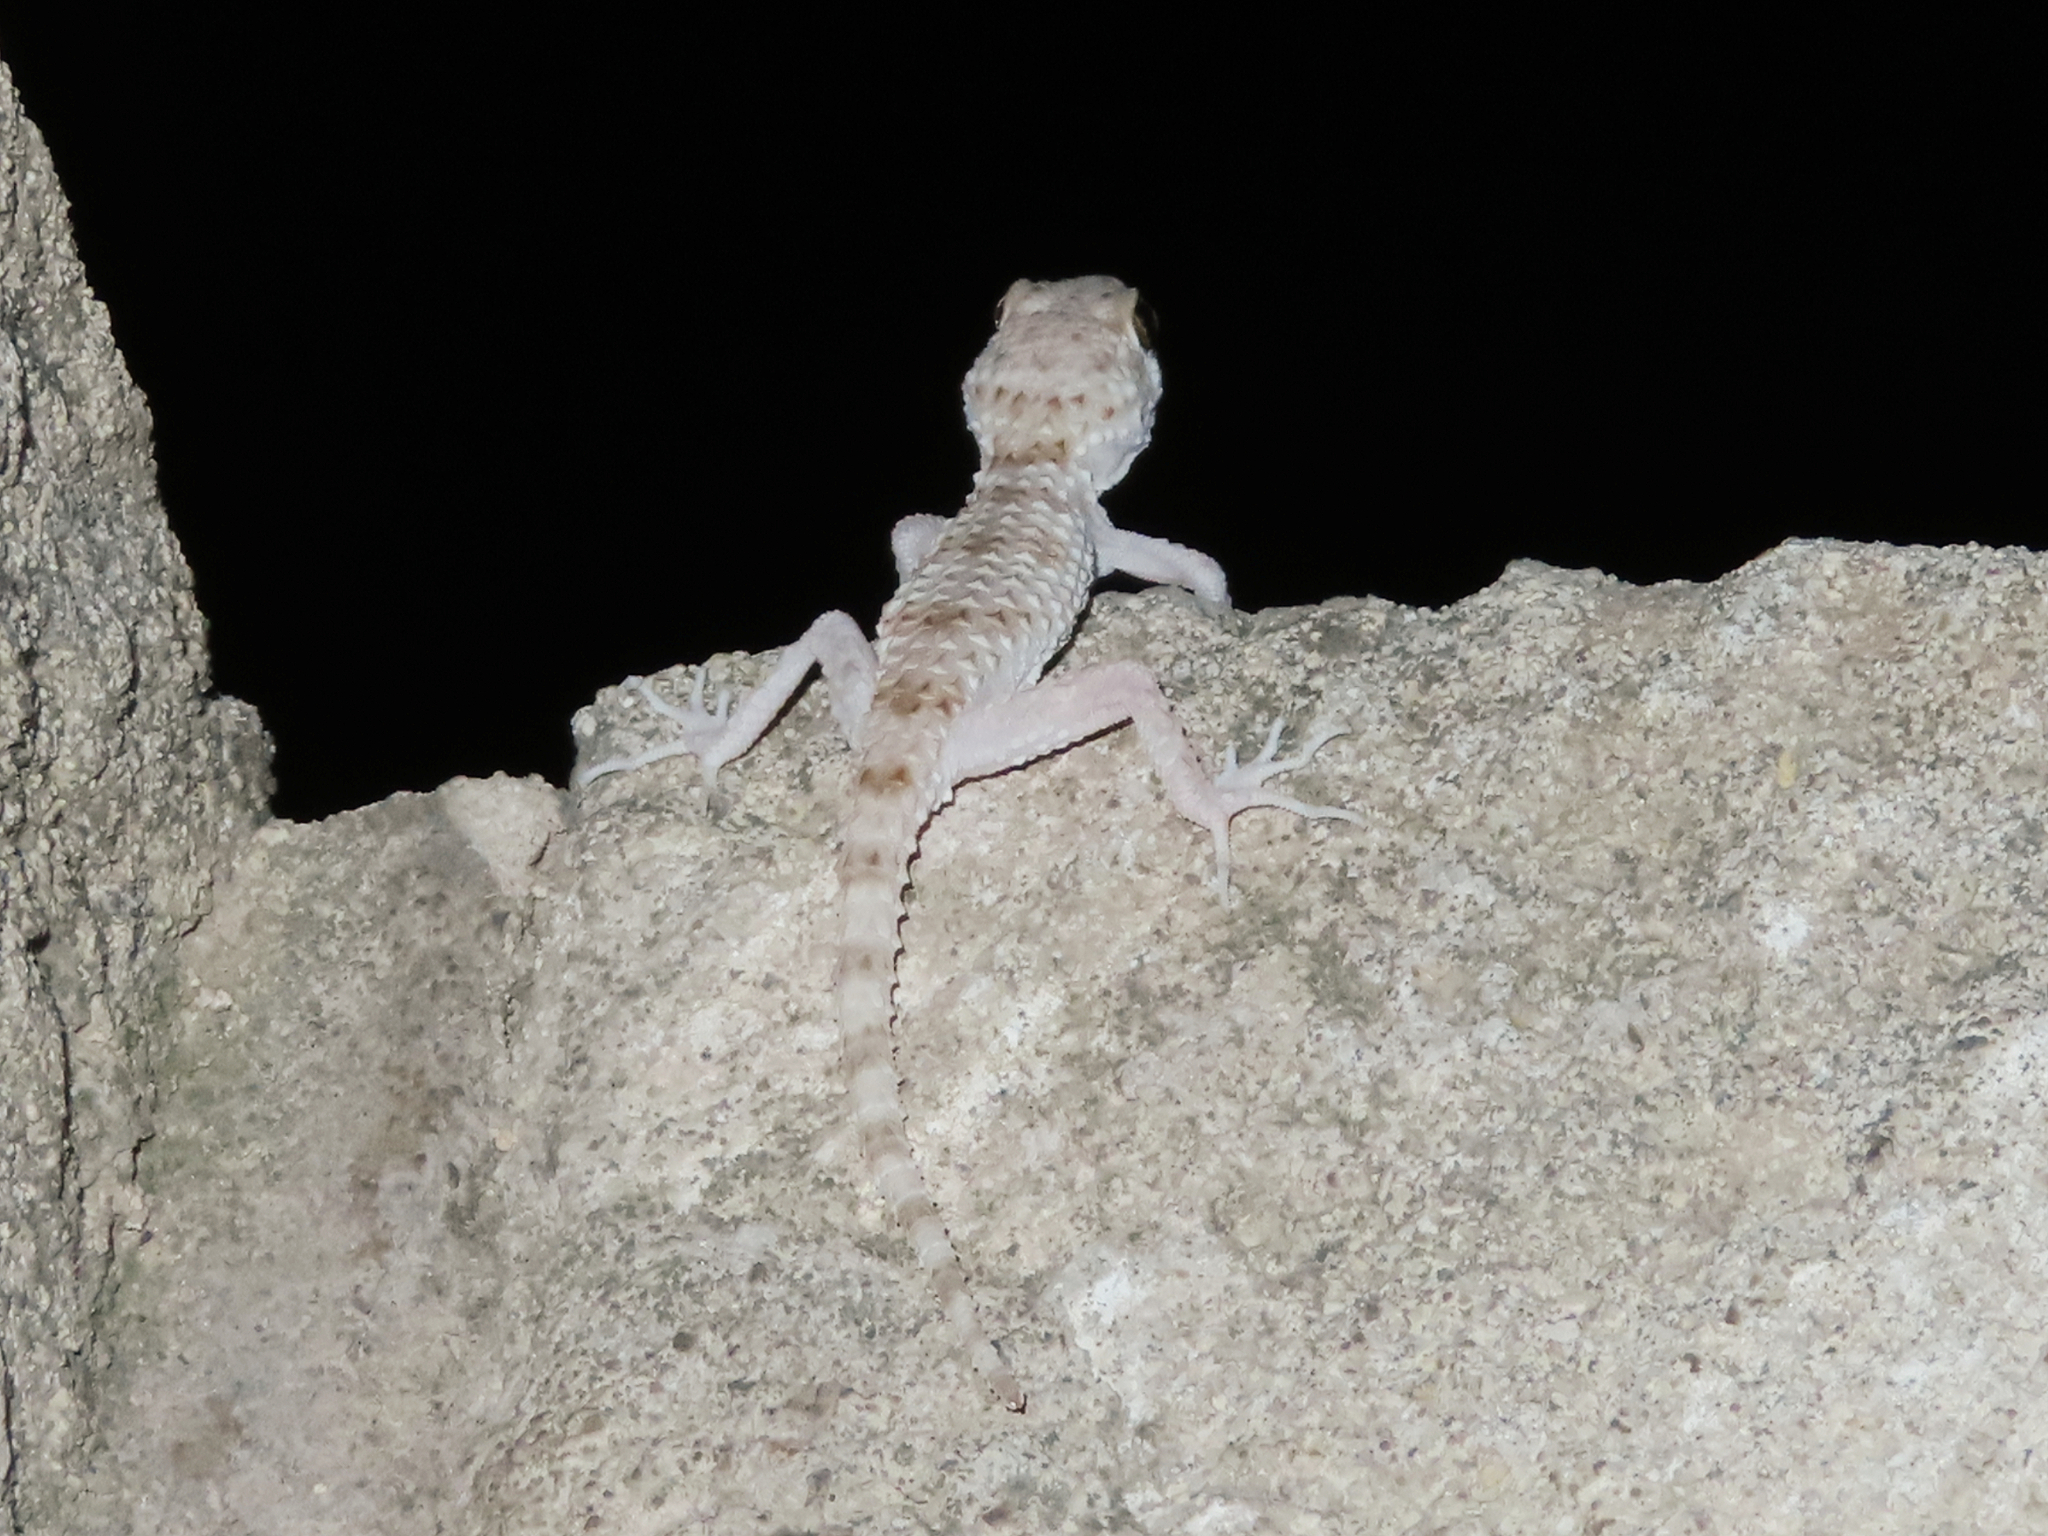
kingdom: Animalia
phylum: Chordata
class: Squamata
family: Gekkonidae
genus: Tenuidactylus
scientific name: Tenuidactylus caspius
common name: Caspian bent-toed gecko
